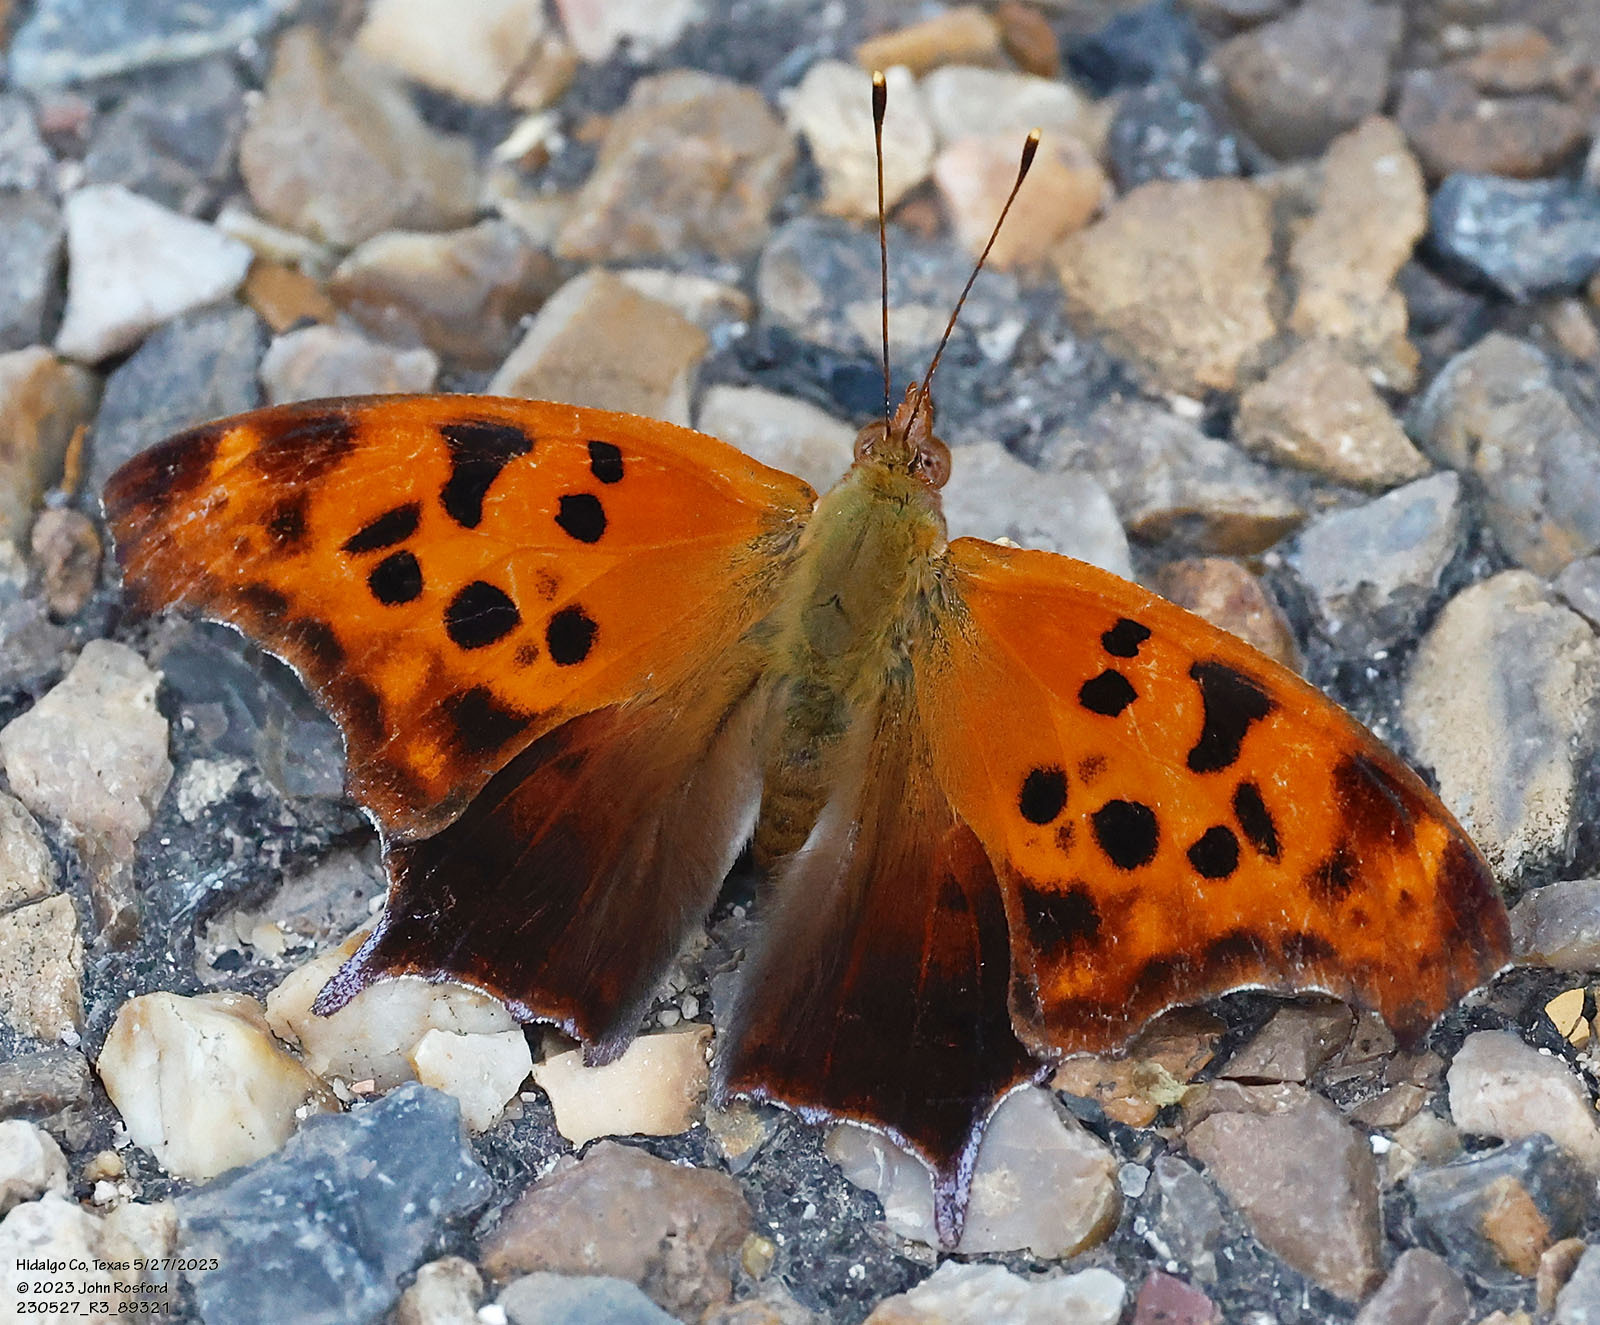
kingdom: Animalia
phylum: Arthropoda
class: Insecta
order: Lepidoptera
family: Nymphalidae
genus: Polygonia
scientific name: Polygonia interrogationis
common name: Question mark
